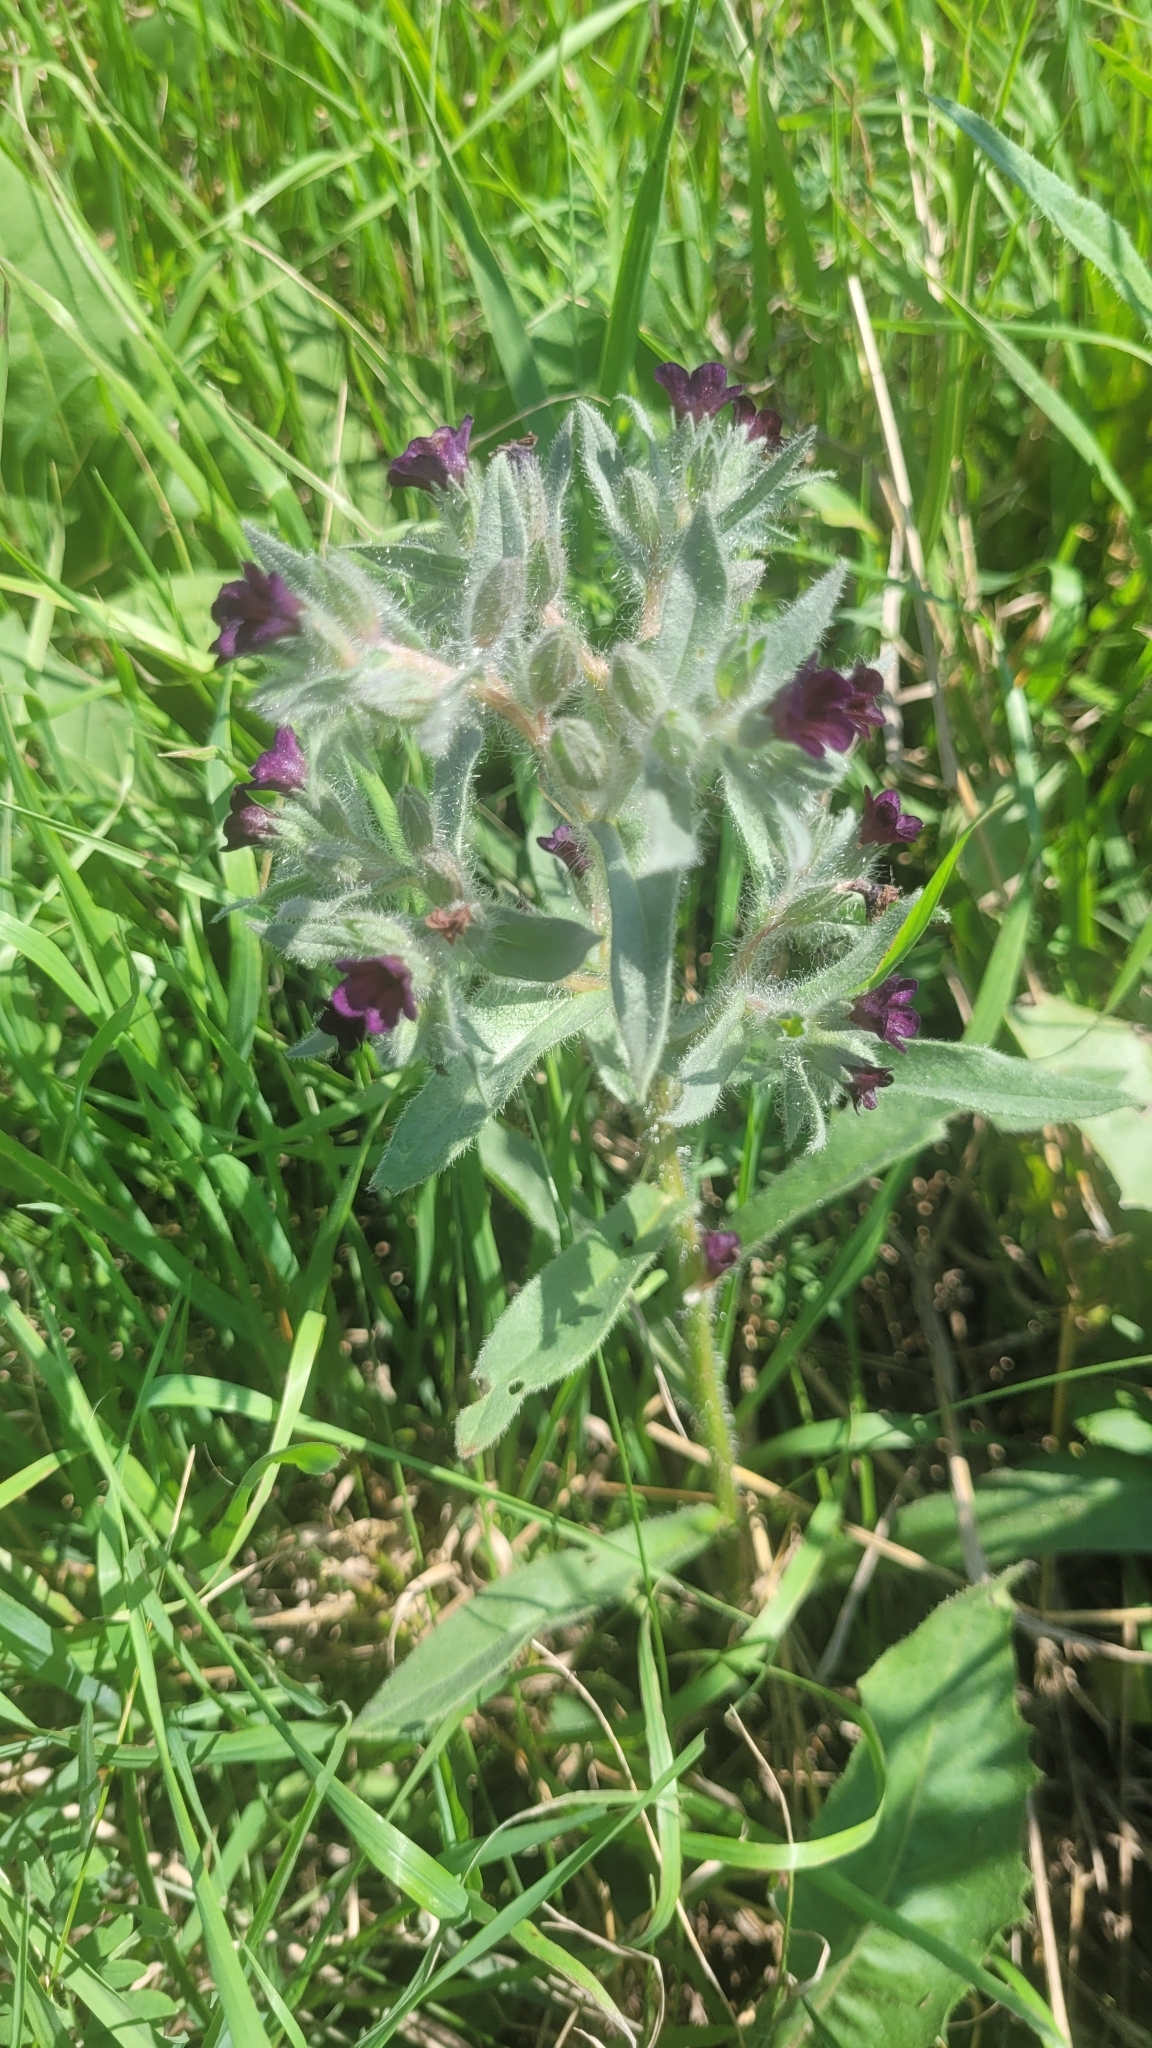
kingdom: Plantae
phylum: Tracheophyta
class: Magnoliopsida
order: Boraginales
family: Boraginaceae
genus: Nonea
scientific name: Nonea pulla
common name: Brown nonea
